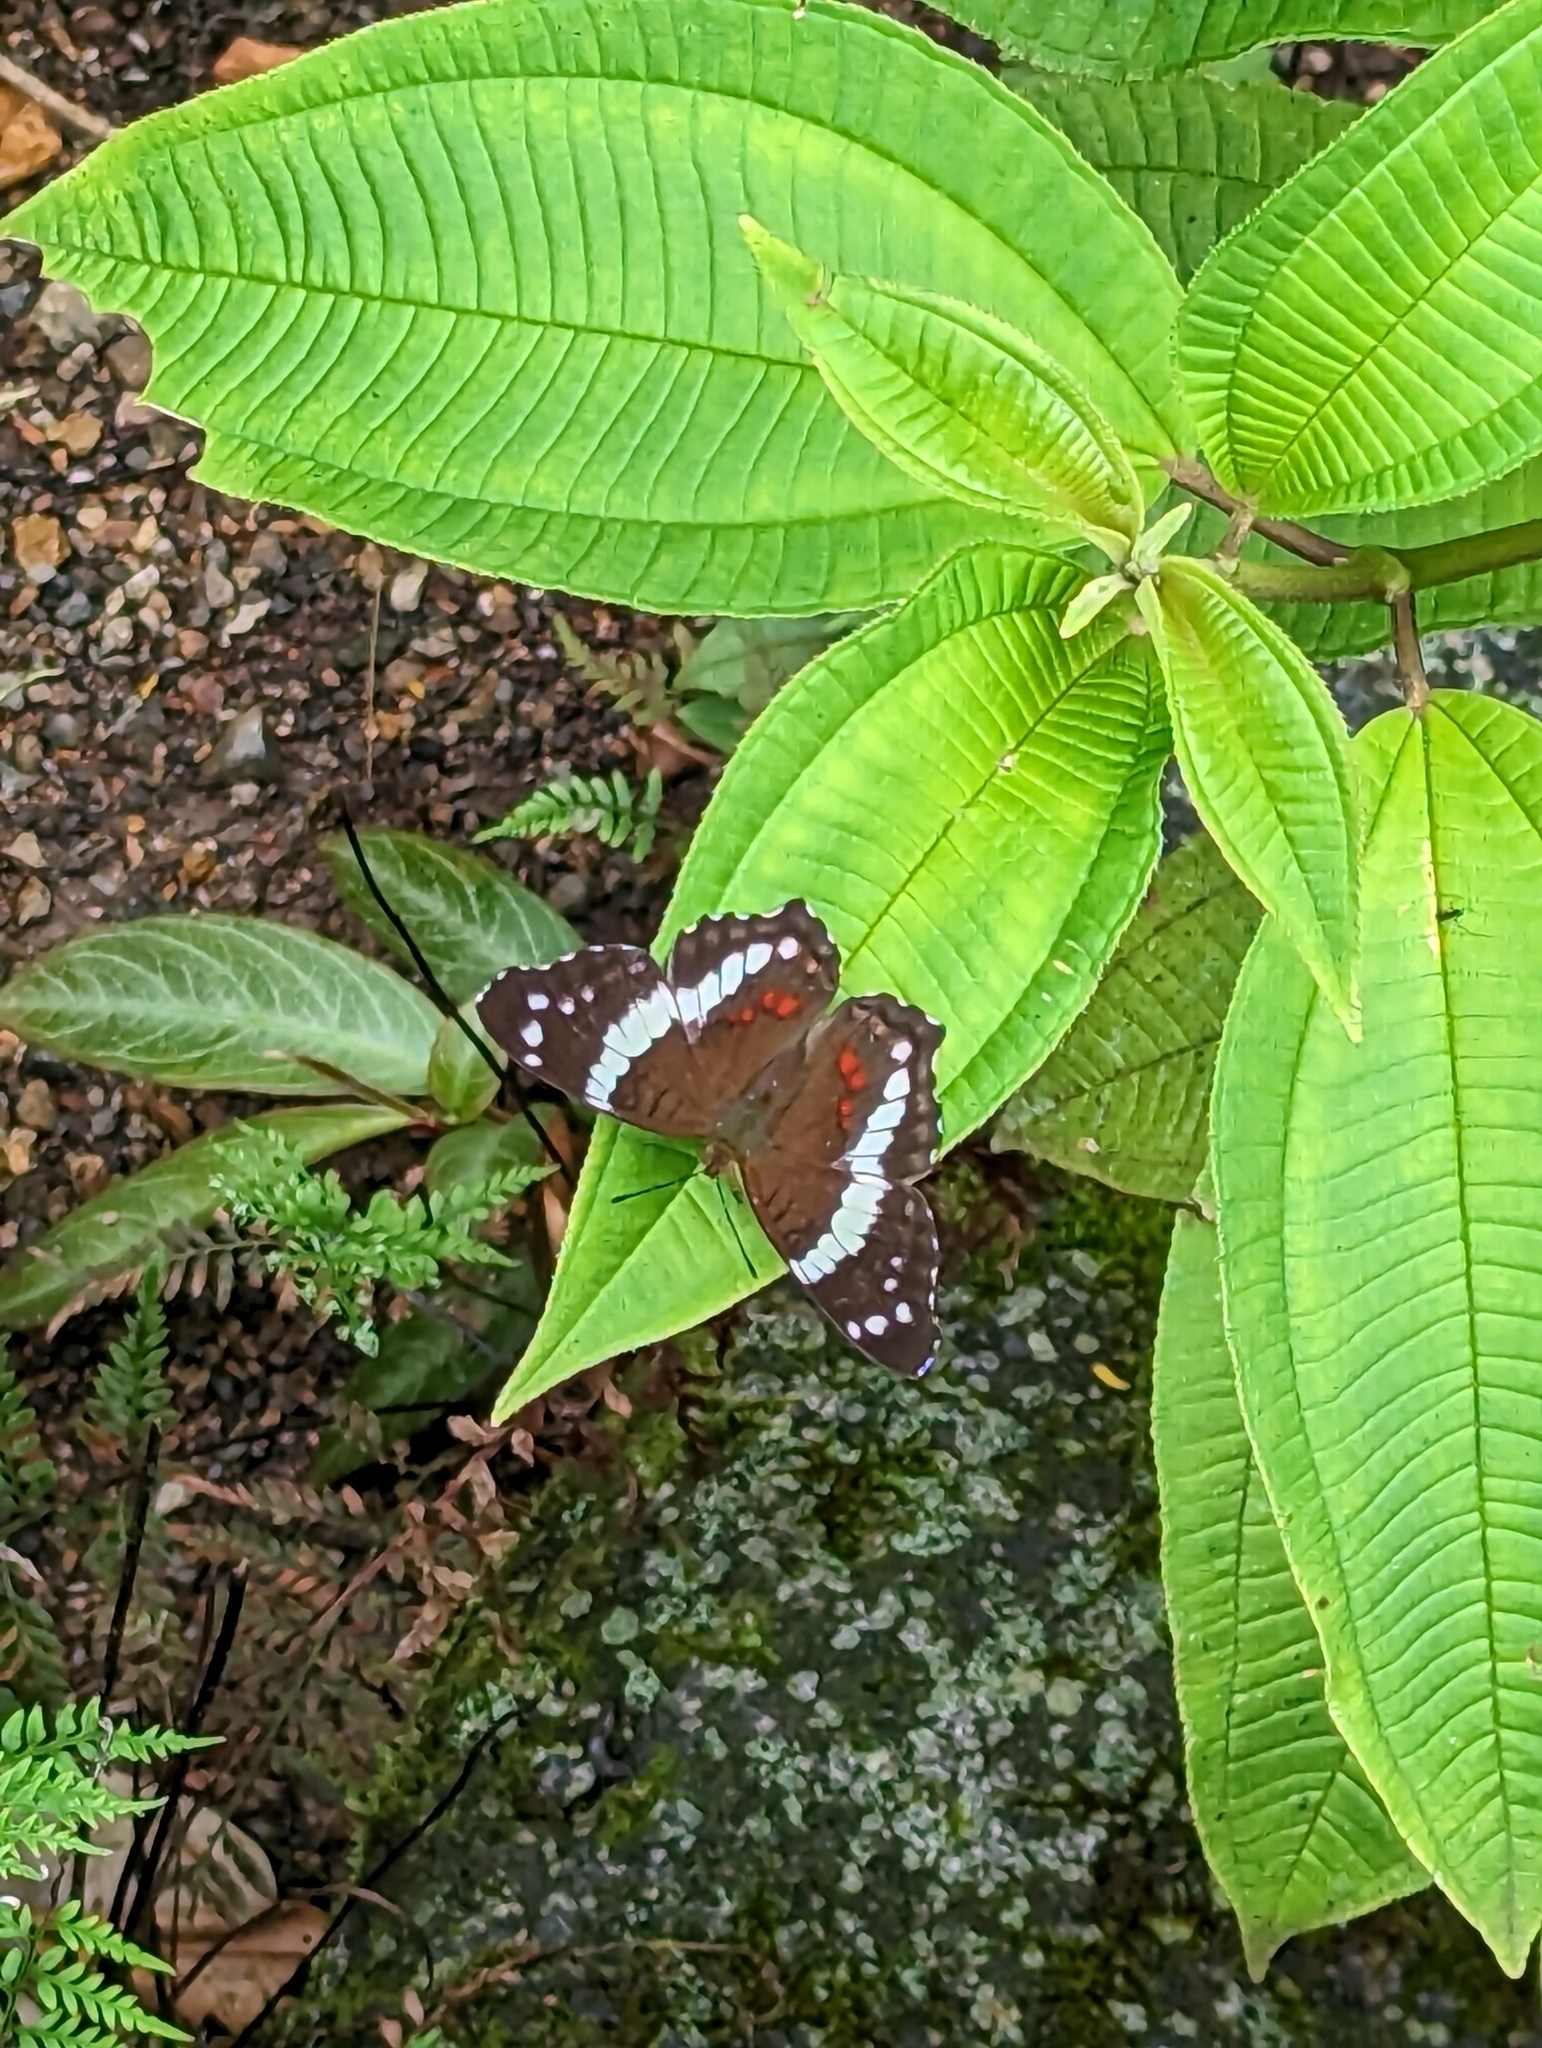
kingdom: Animalia
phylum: Arthropoda
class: Insecta
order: Lepidoptera
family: Nymphalidae
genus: Anartia
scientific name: Anartia fatima
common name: Banded peacock
